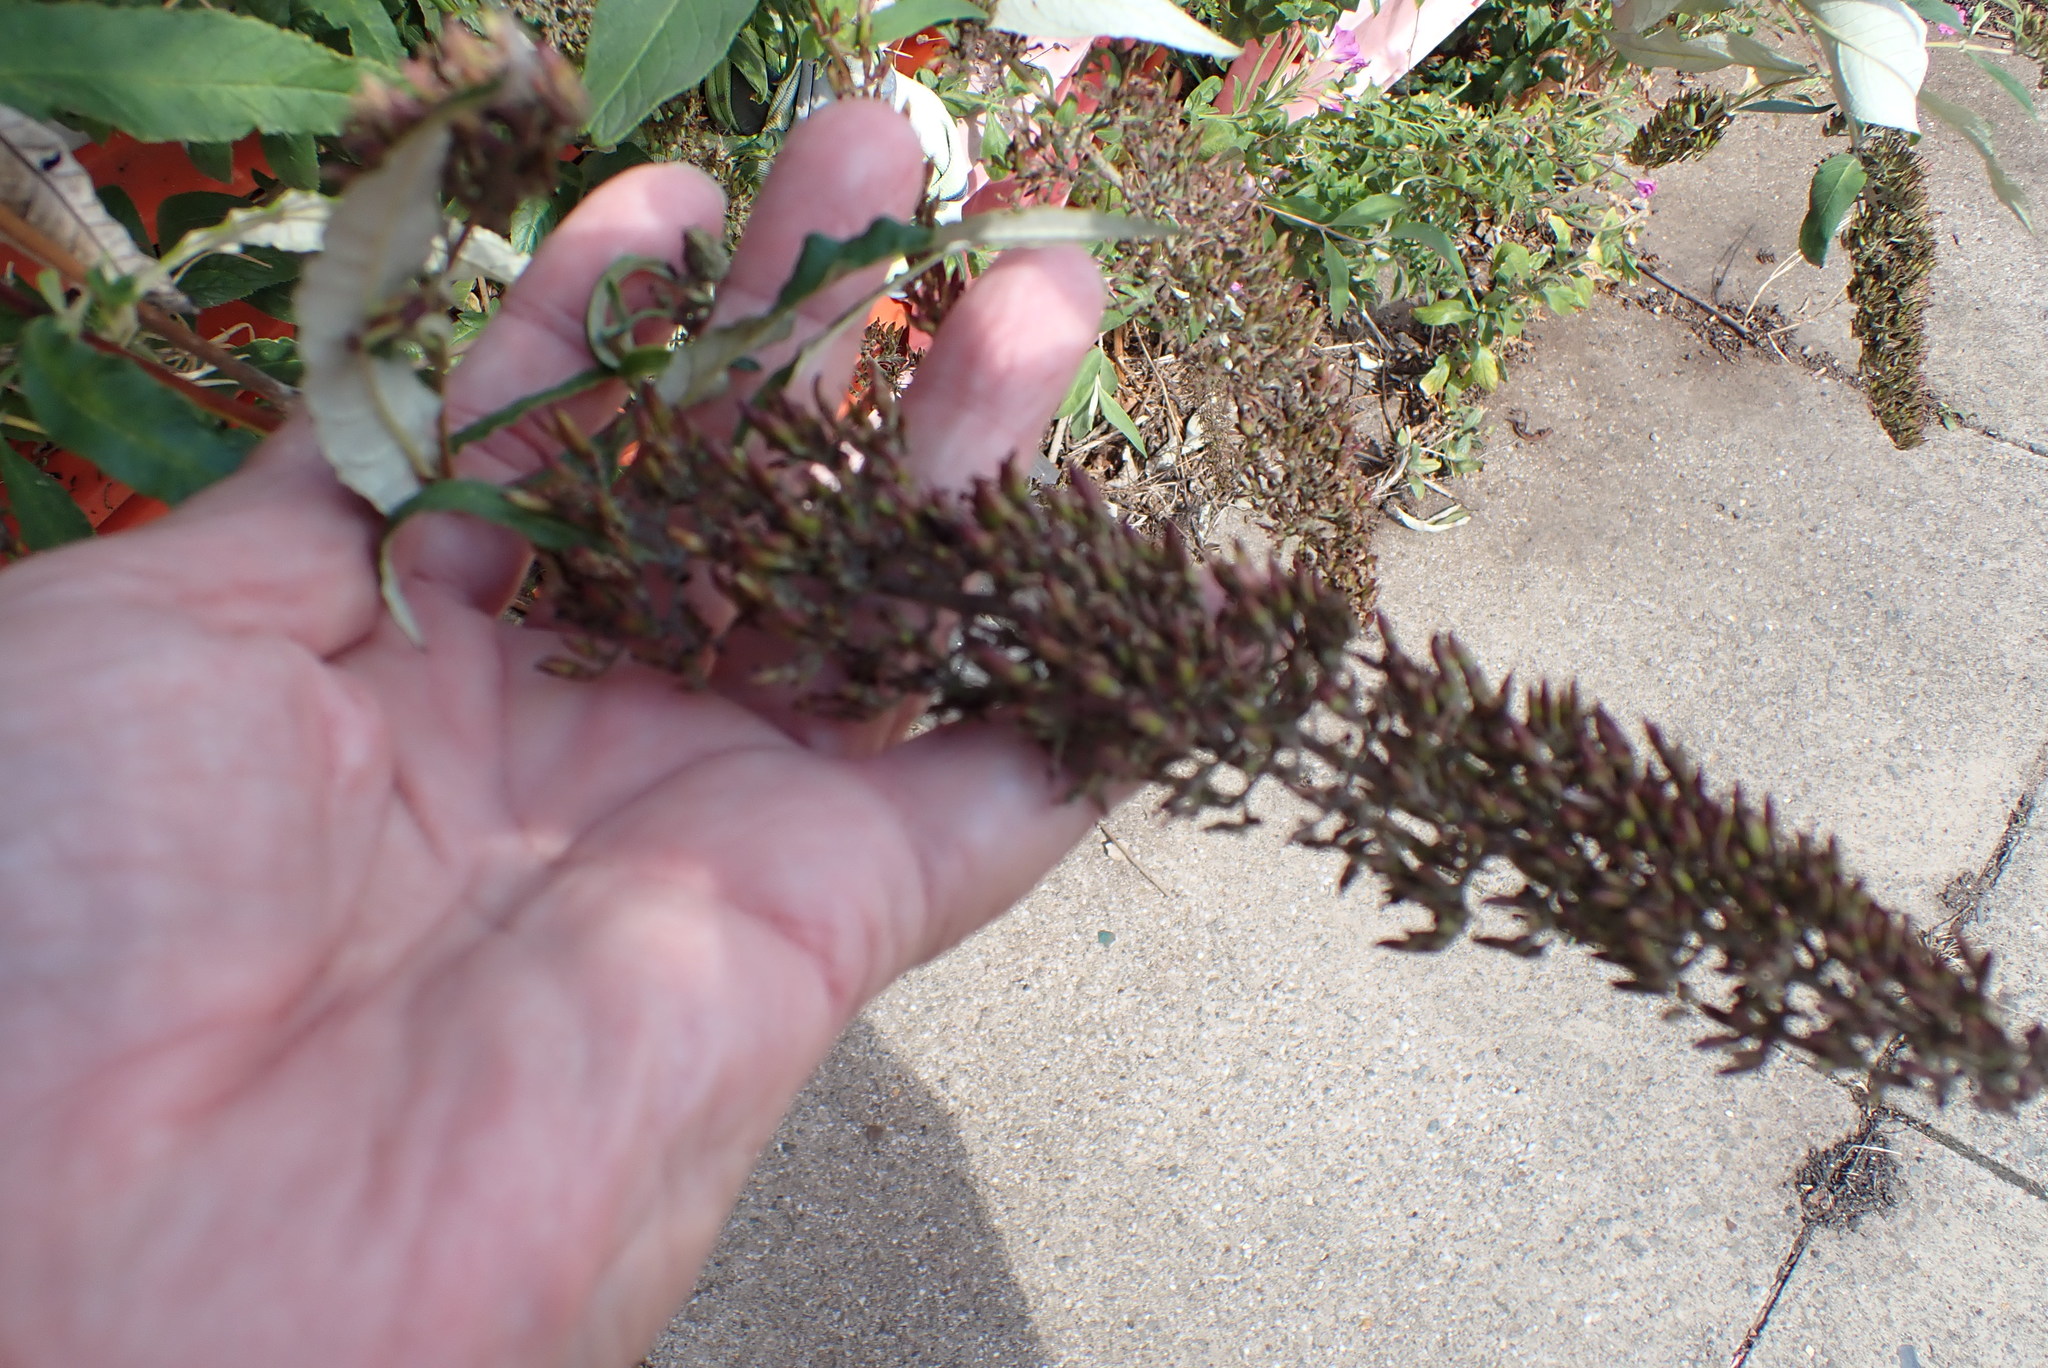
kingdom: Plantae
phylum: Tracheophyta
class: Magnoliopsida
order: Lamiales
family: Scrophulariaceae
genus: Buddleja
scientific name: Buddleja davidii
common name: Butterfly-bush
